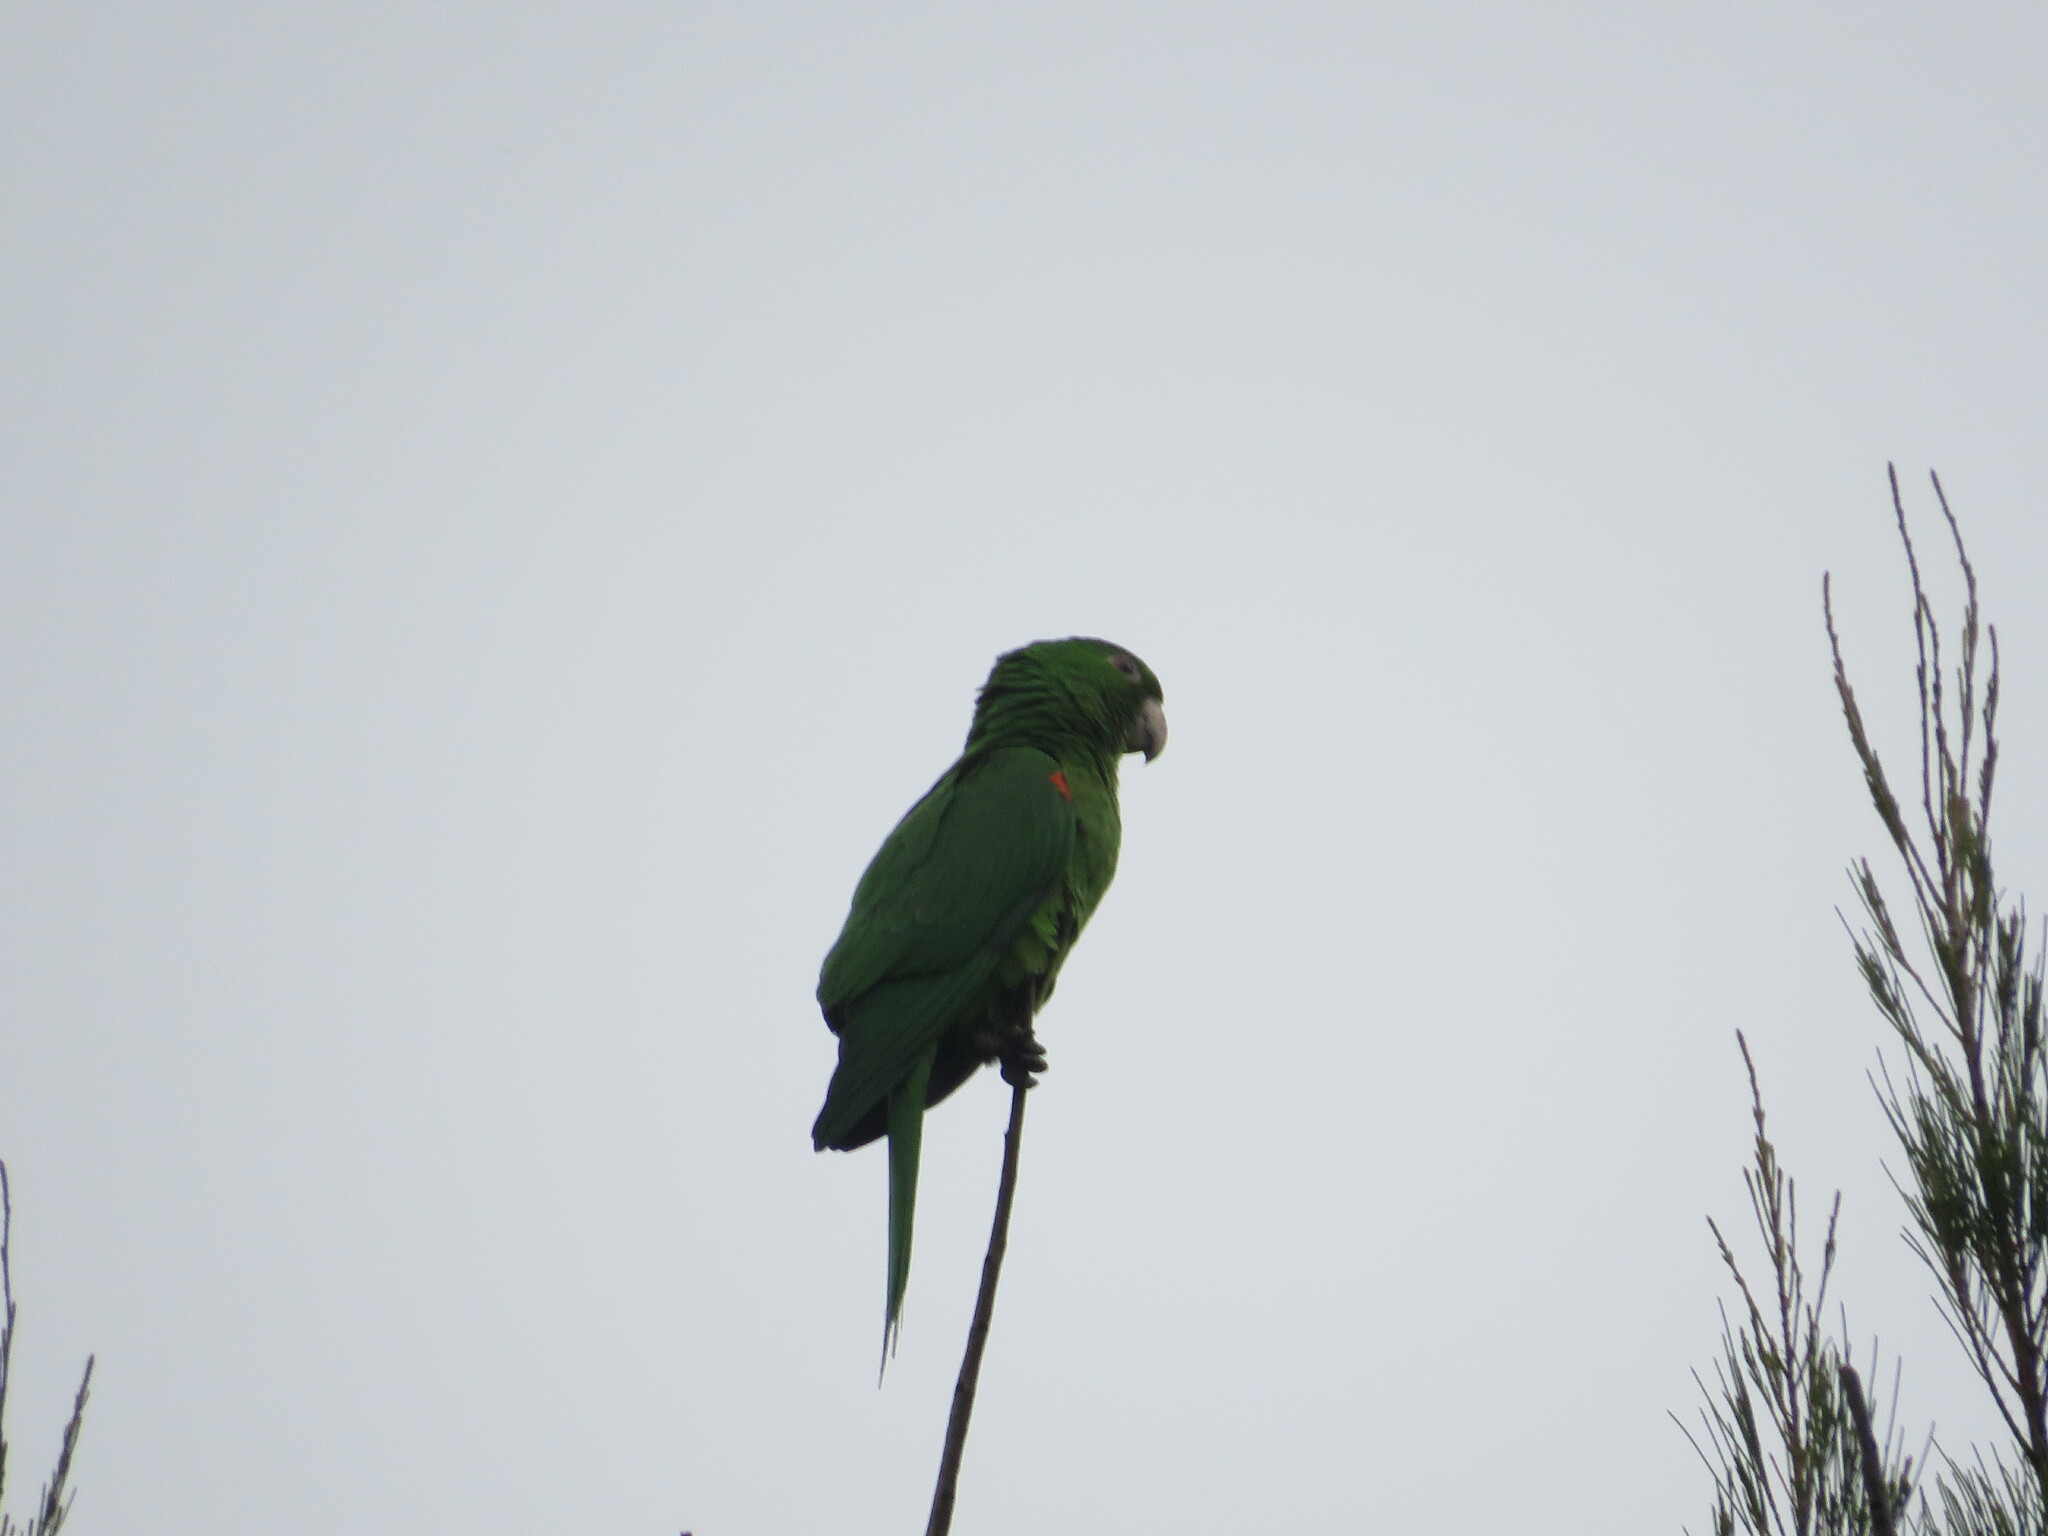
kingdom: Animalia
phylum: Chordata
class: Aves
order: Psittaciformes
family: Psittacidae
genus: Aratinga
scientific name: Aratinga leucophthalma
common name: White-eyed parakeet
